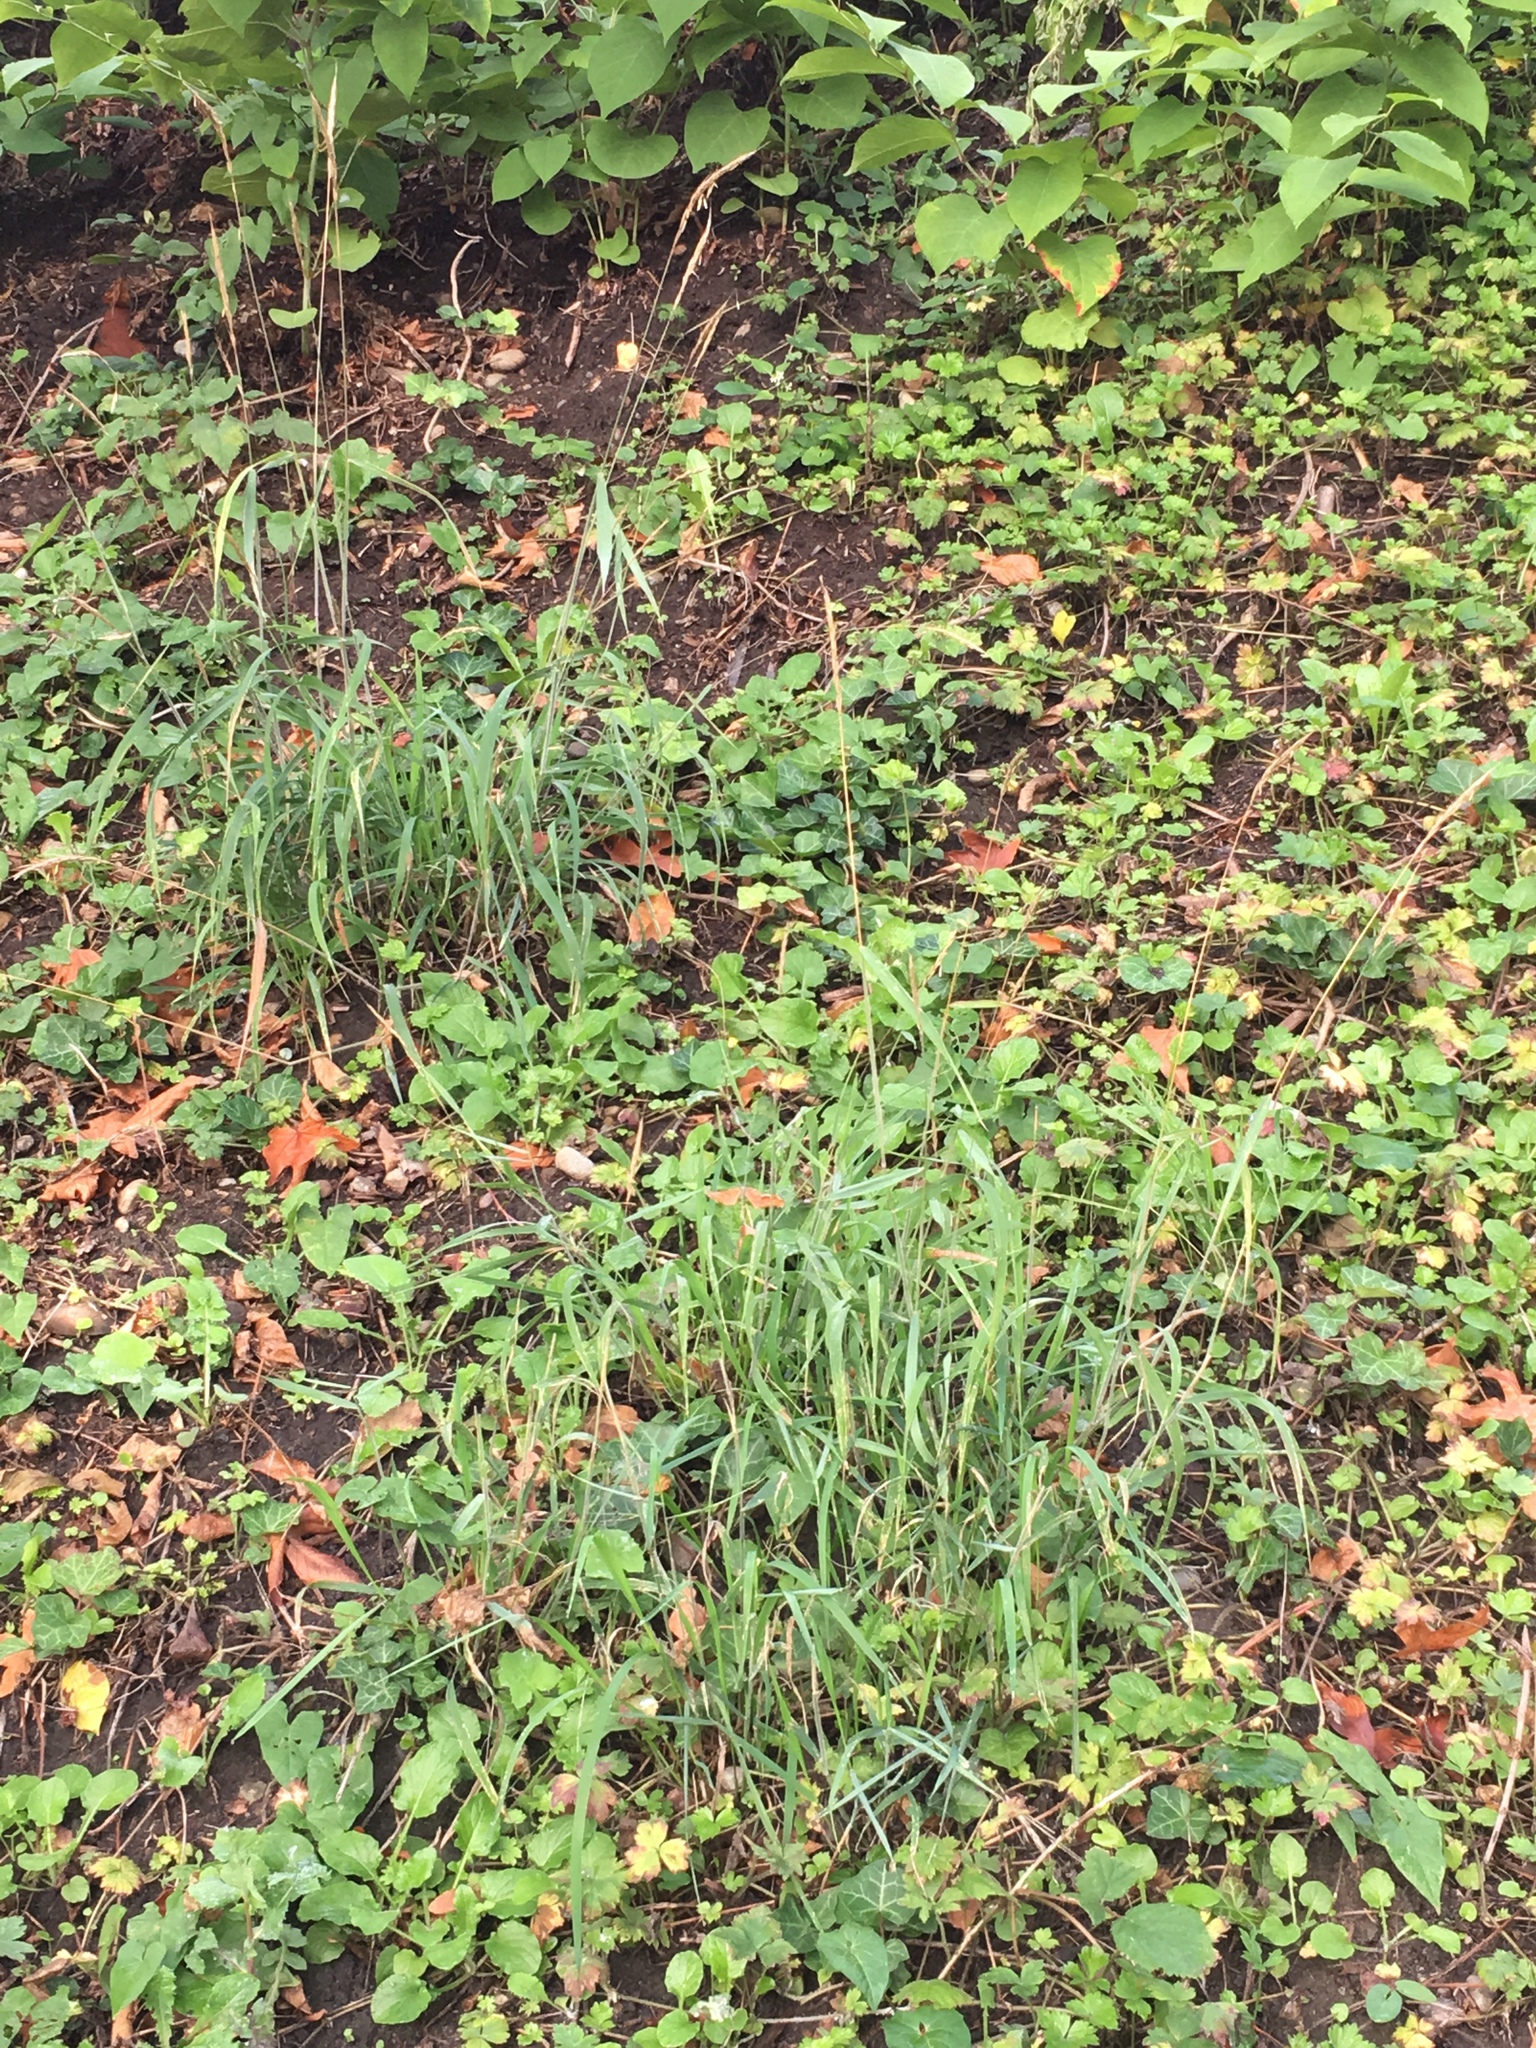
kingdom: Plantae
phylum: Tracheophyta
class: Liliopsida
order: Poales
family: Poaceae
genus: Elymus
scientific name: Elymus glaucus
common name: Blue wild rye
